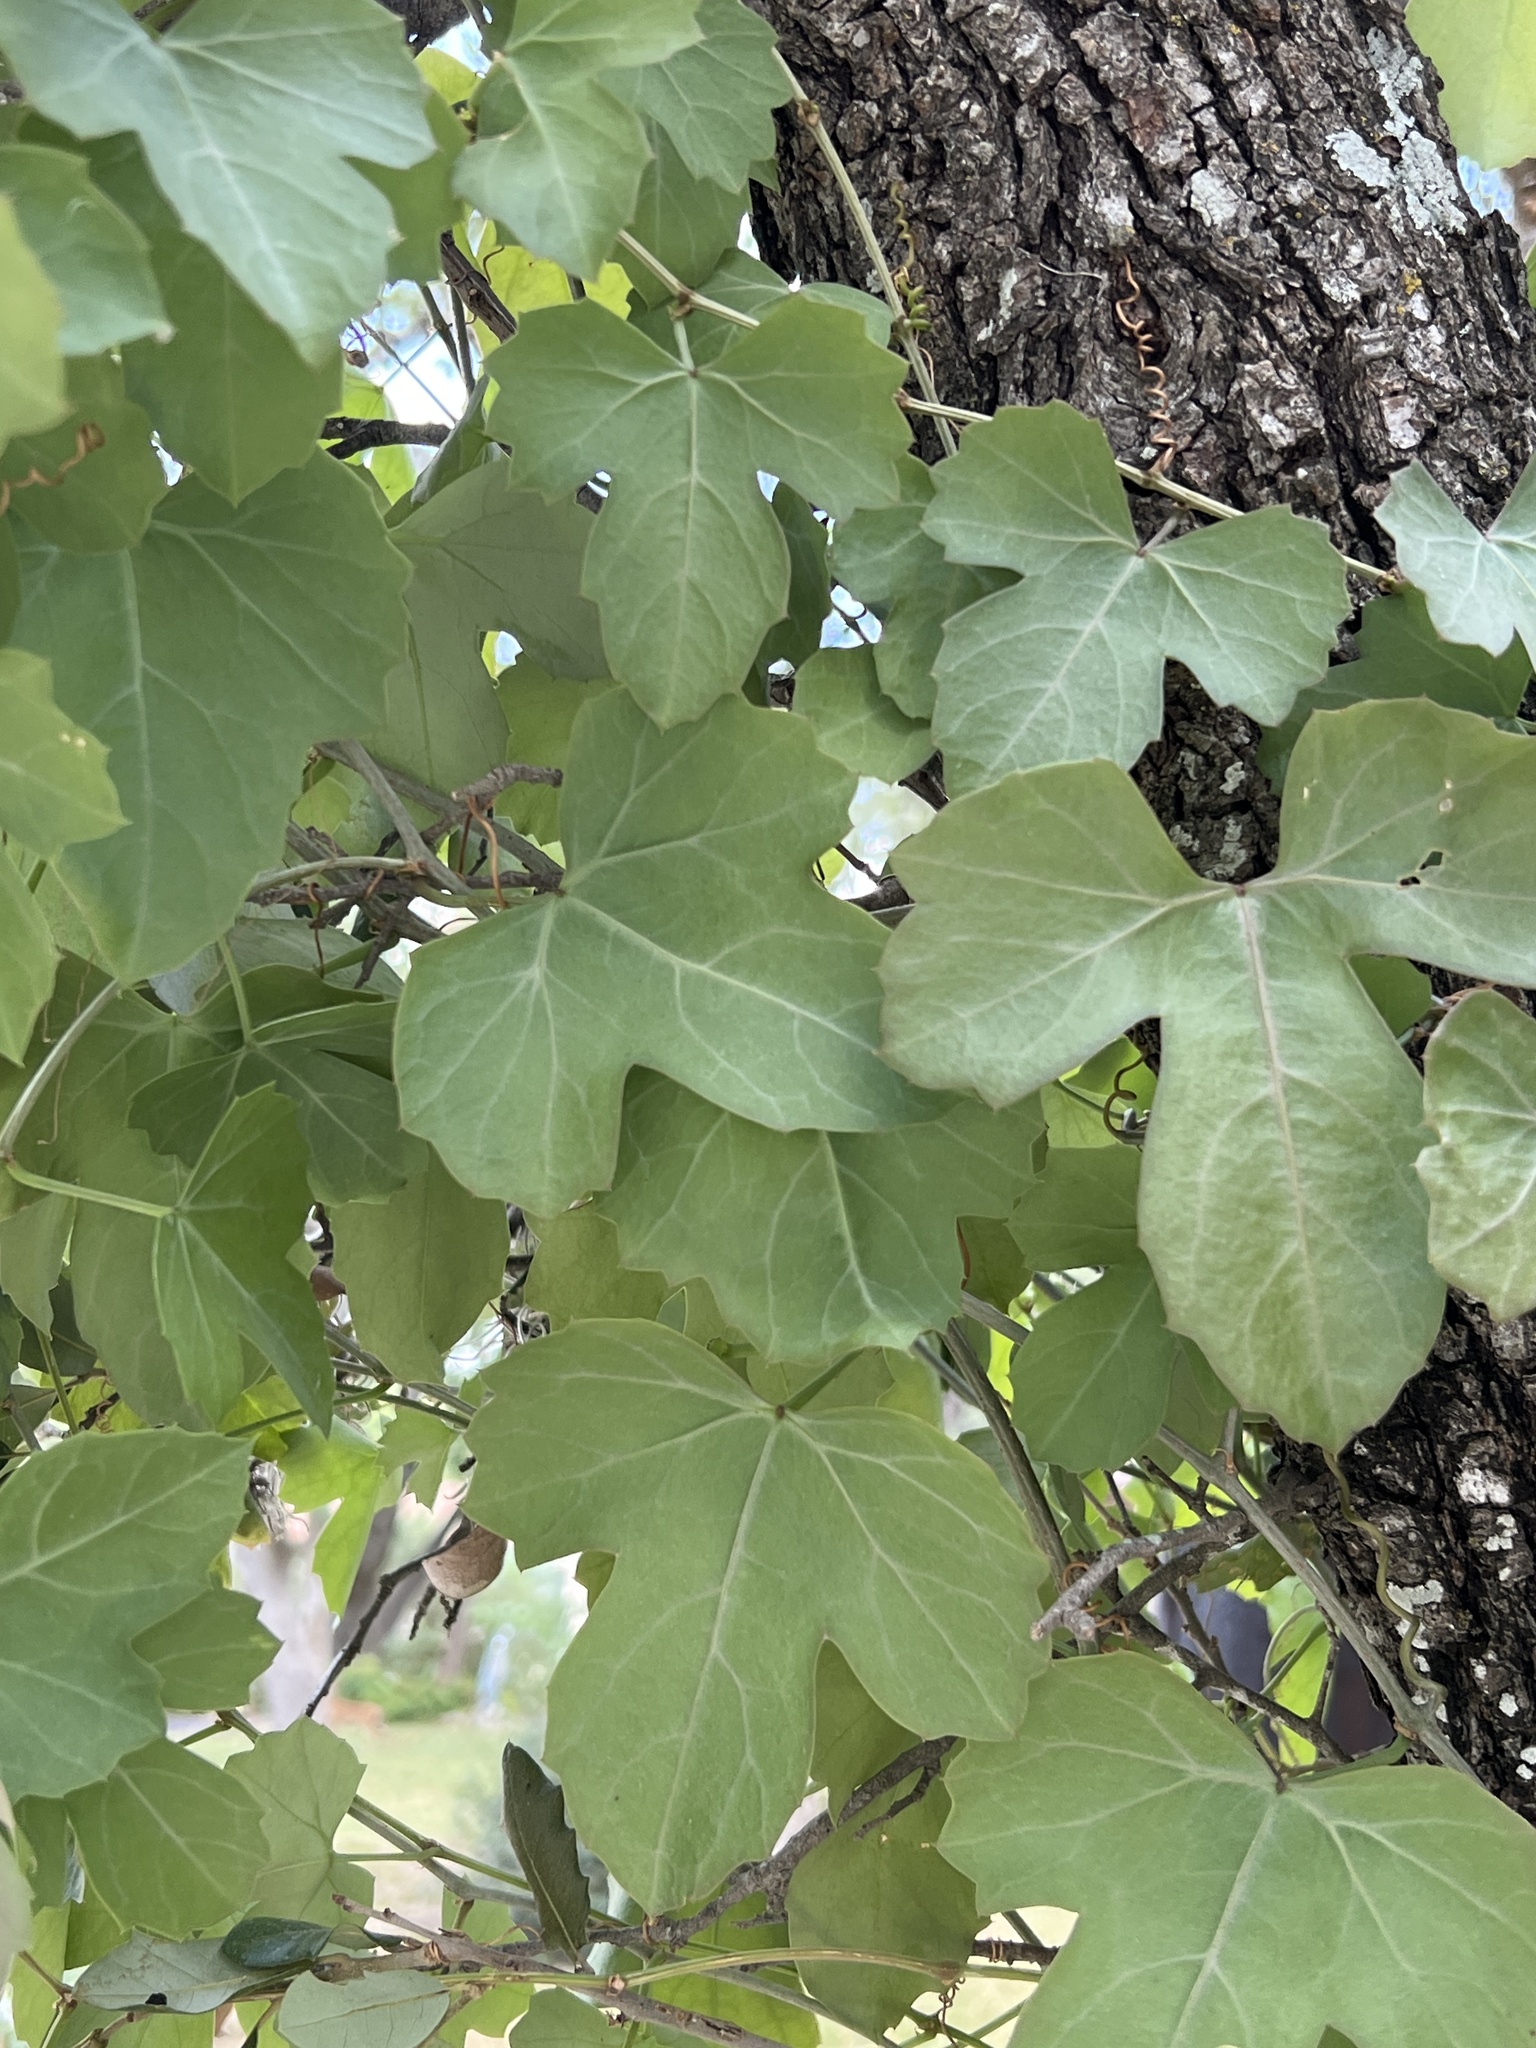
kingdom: Plantae
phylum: Tracheophyta
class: Magnoliopsida
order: Vitales
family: Vitaceae
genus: Cissus
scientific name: Cissus trifoliata
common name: Vine-sorrel
